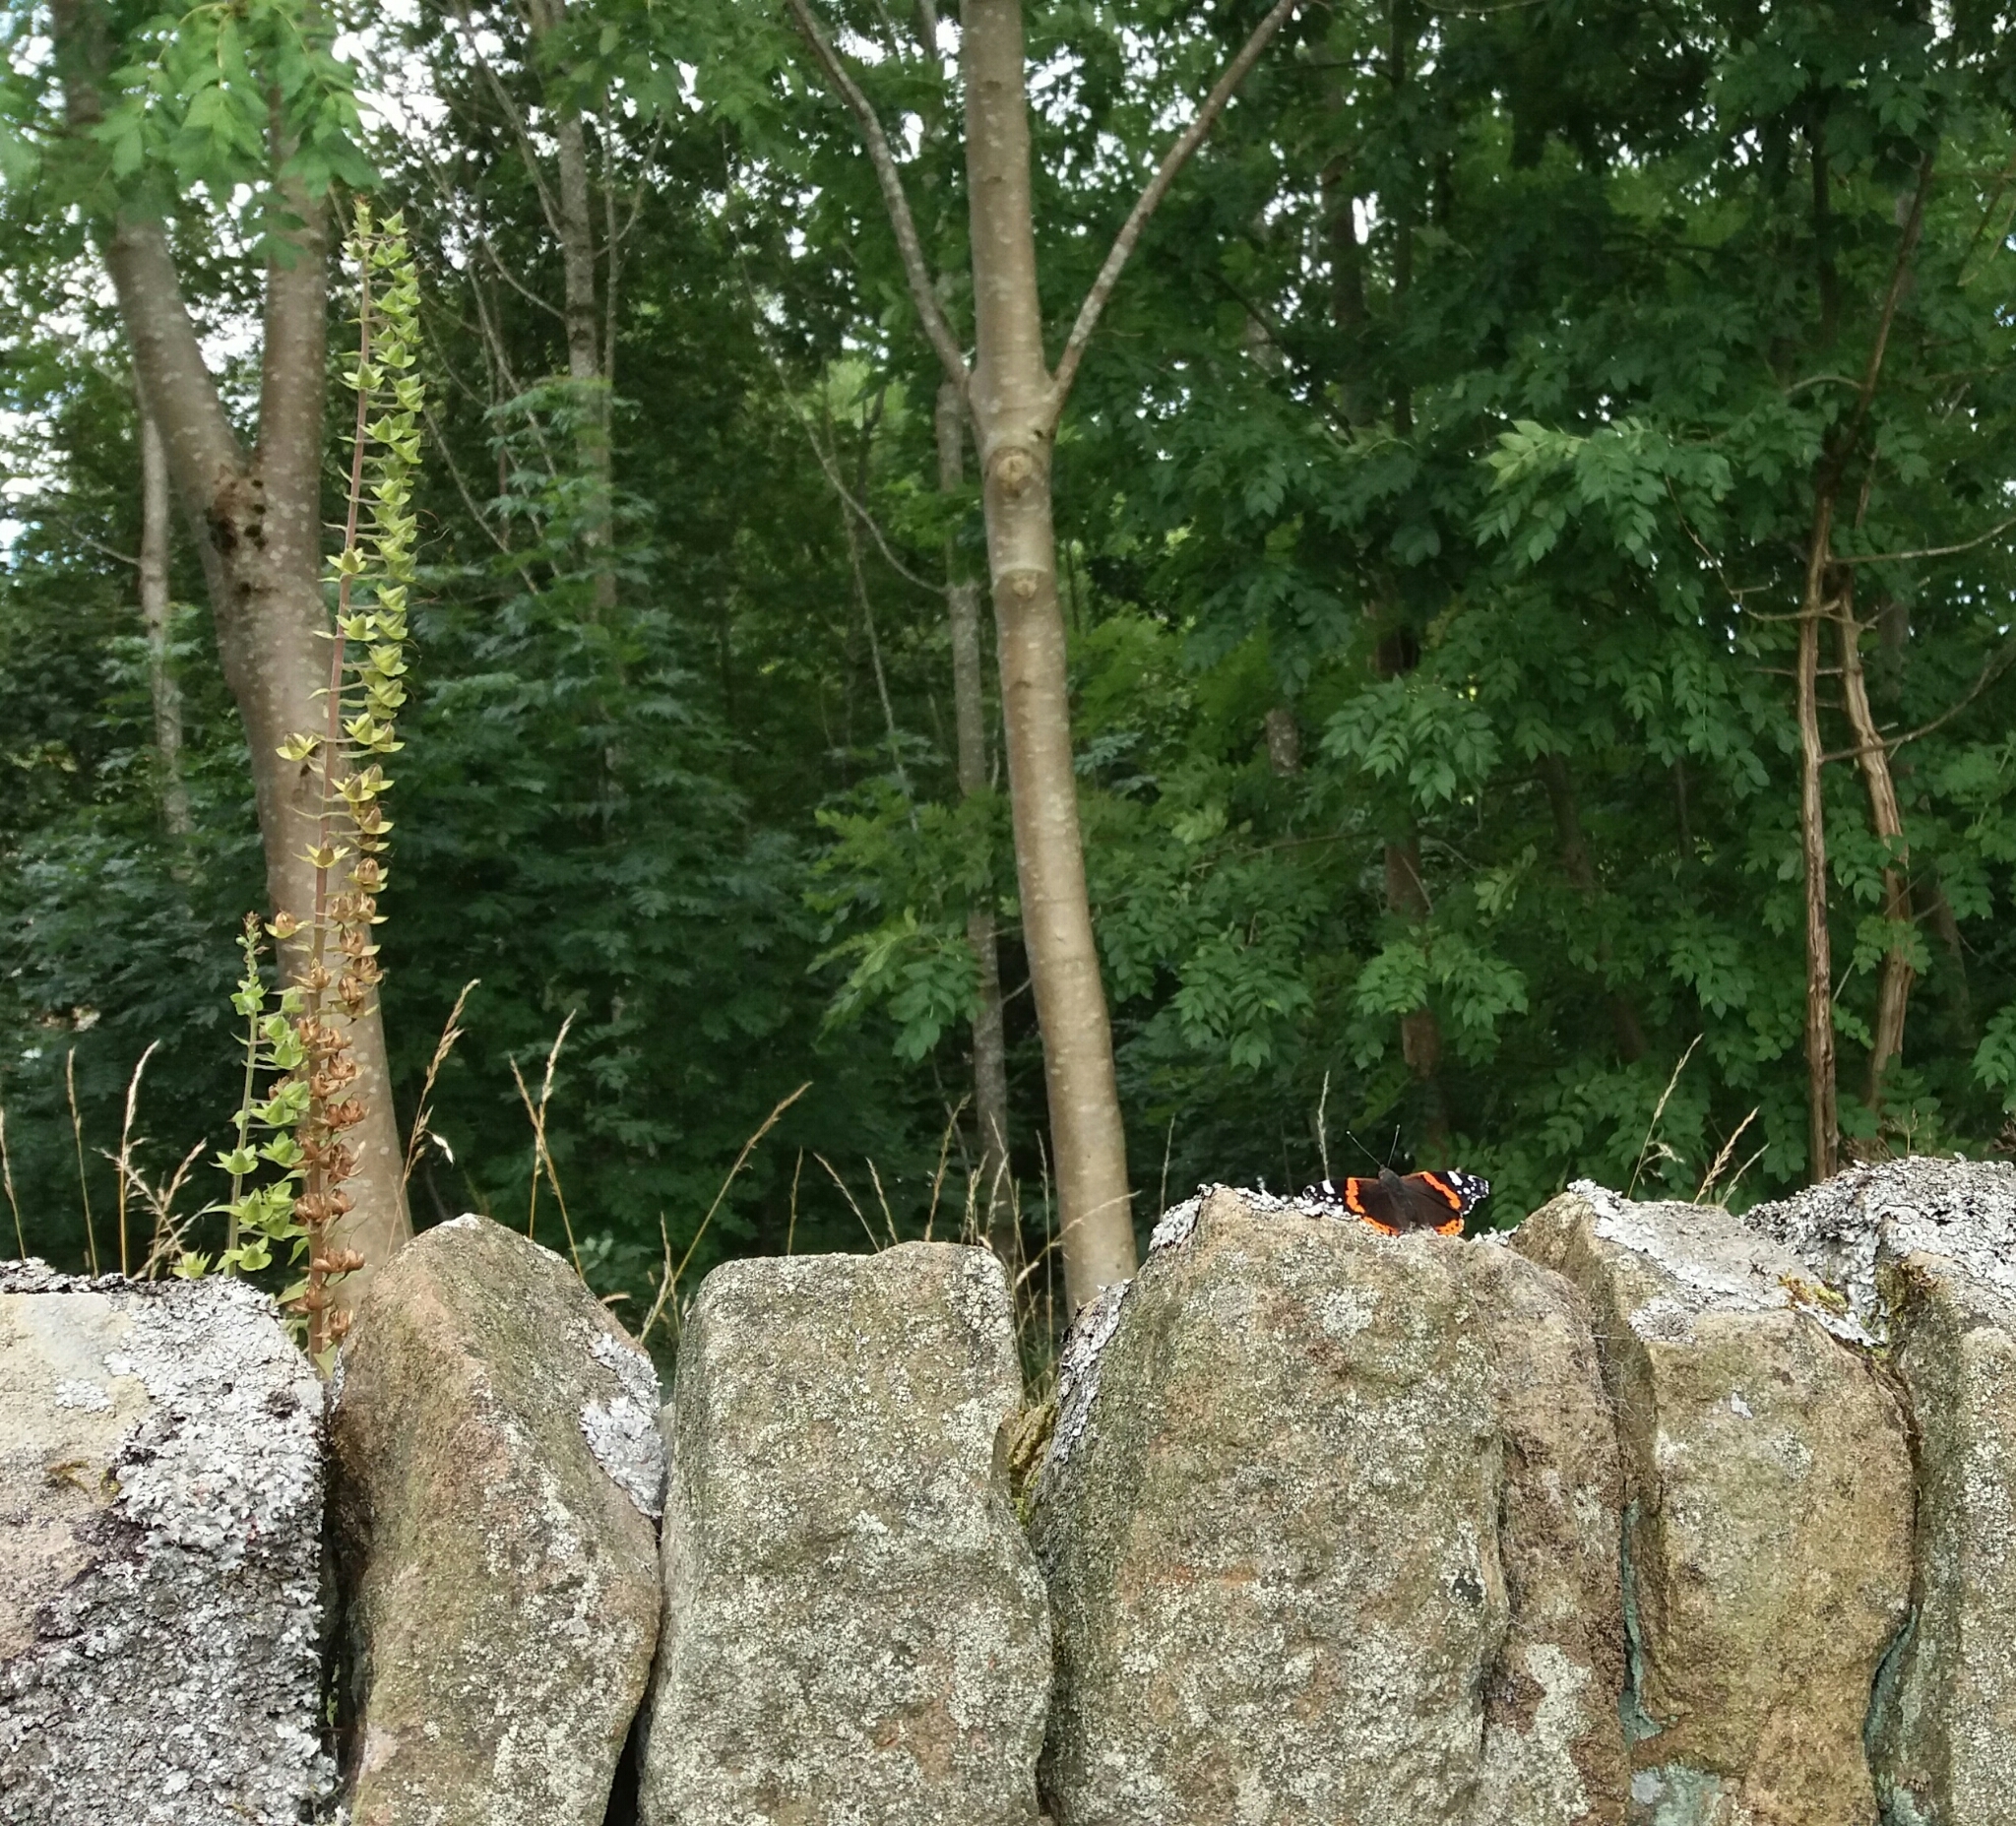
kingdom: Animalia
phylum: Arthropoda
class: Insecta
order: Lepidoptera
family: Nymphalidae
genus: Vanessa
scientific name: Vanessa atalanta
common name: Red admiral
